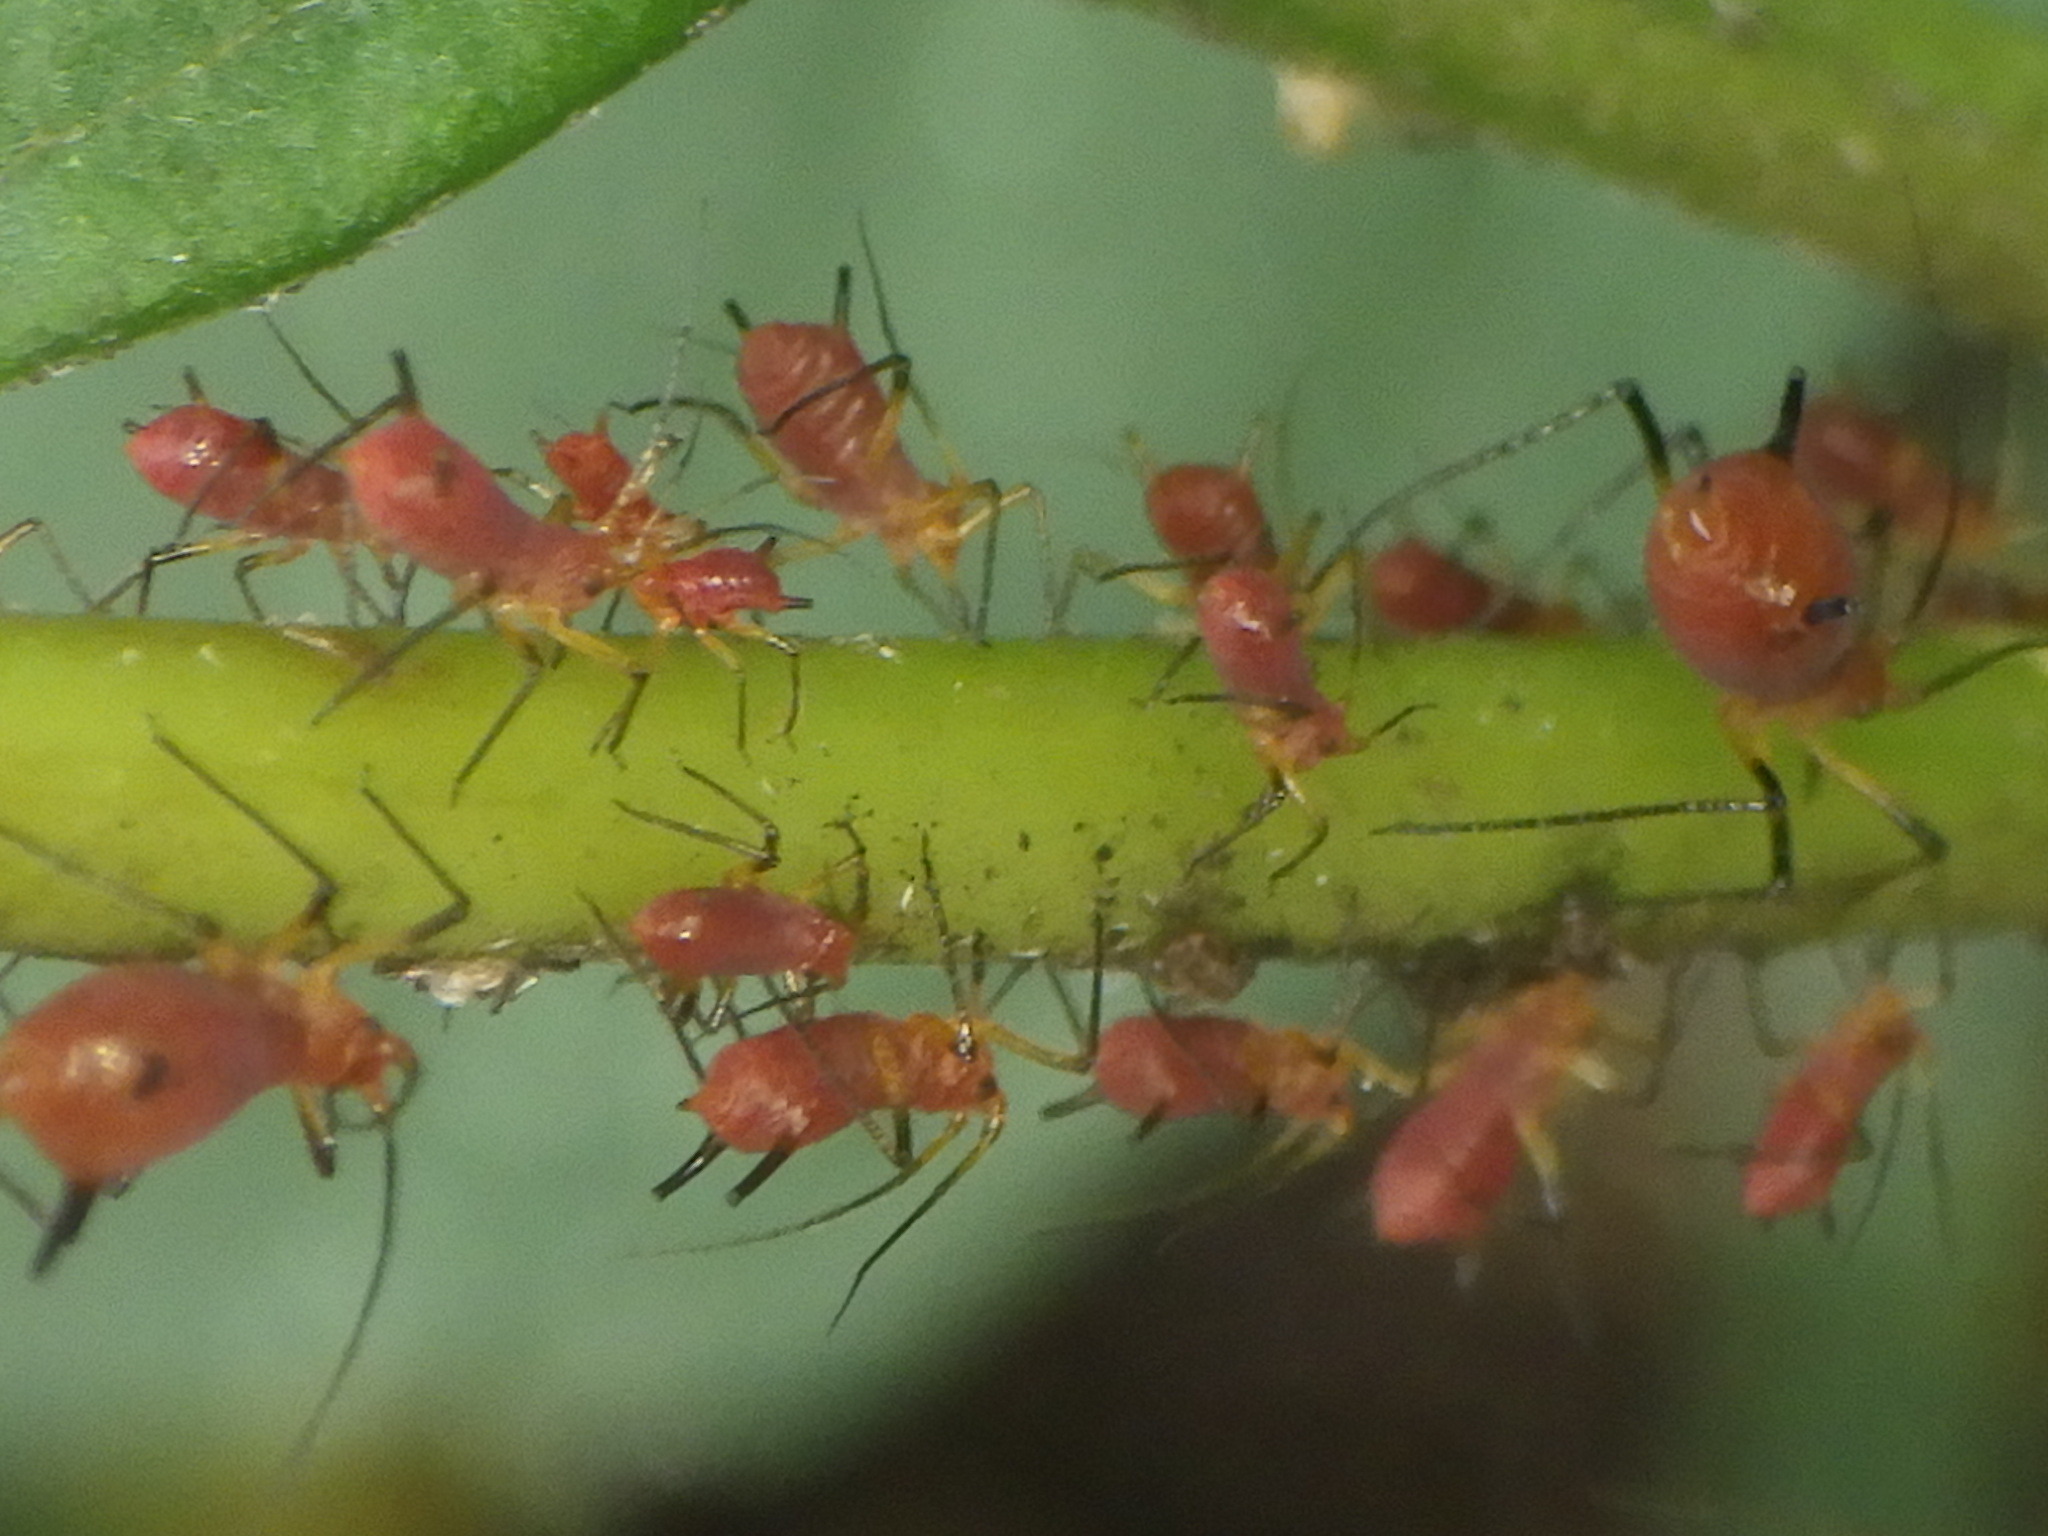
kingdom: Animalia
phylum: Arthropoda
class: Insecta
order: Hemiptera
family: Aphididae
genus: Uroleucon
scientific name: Uroleucon
